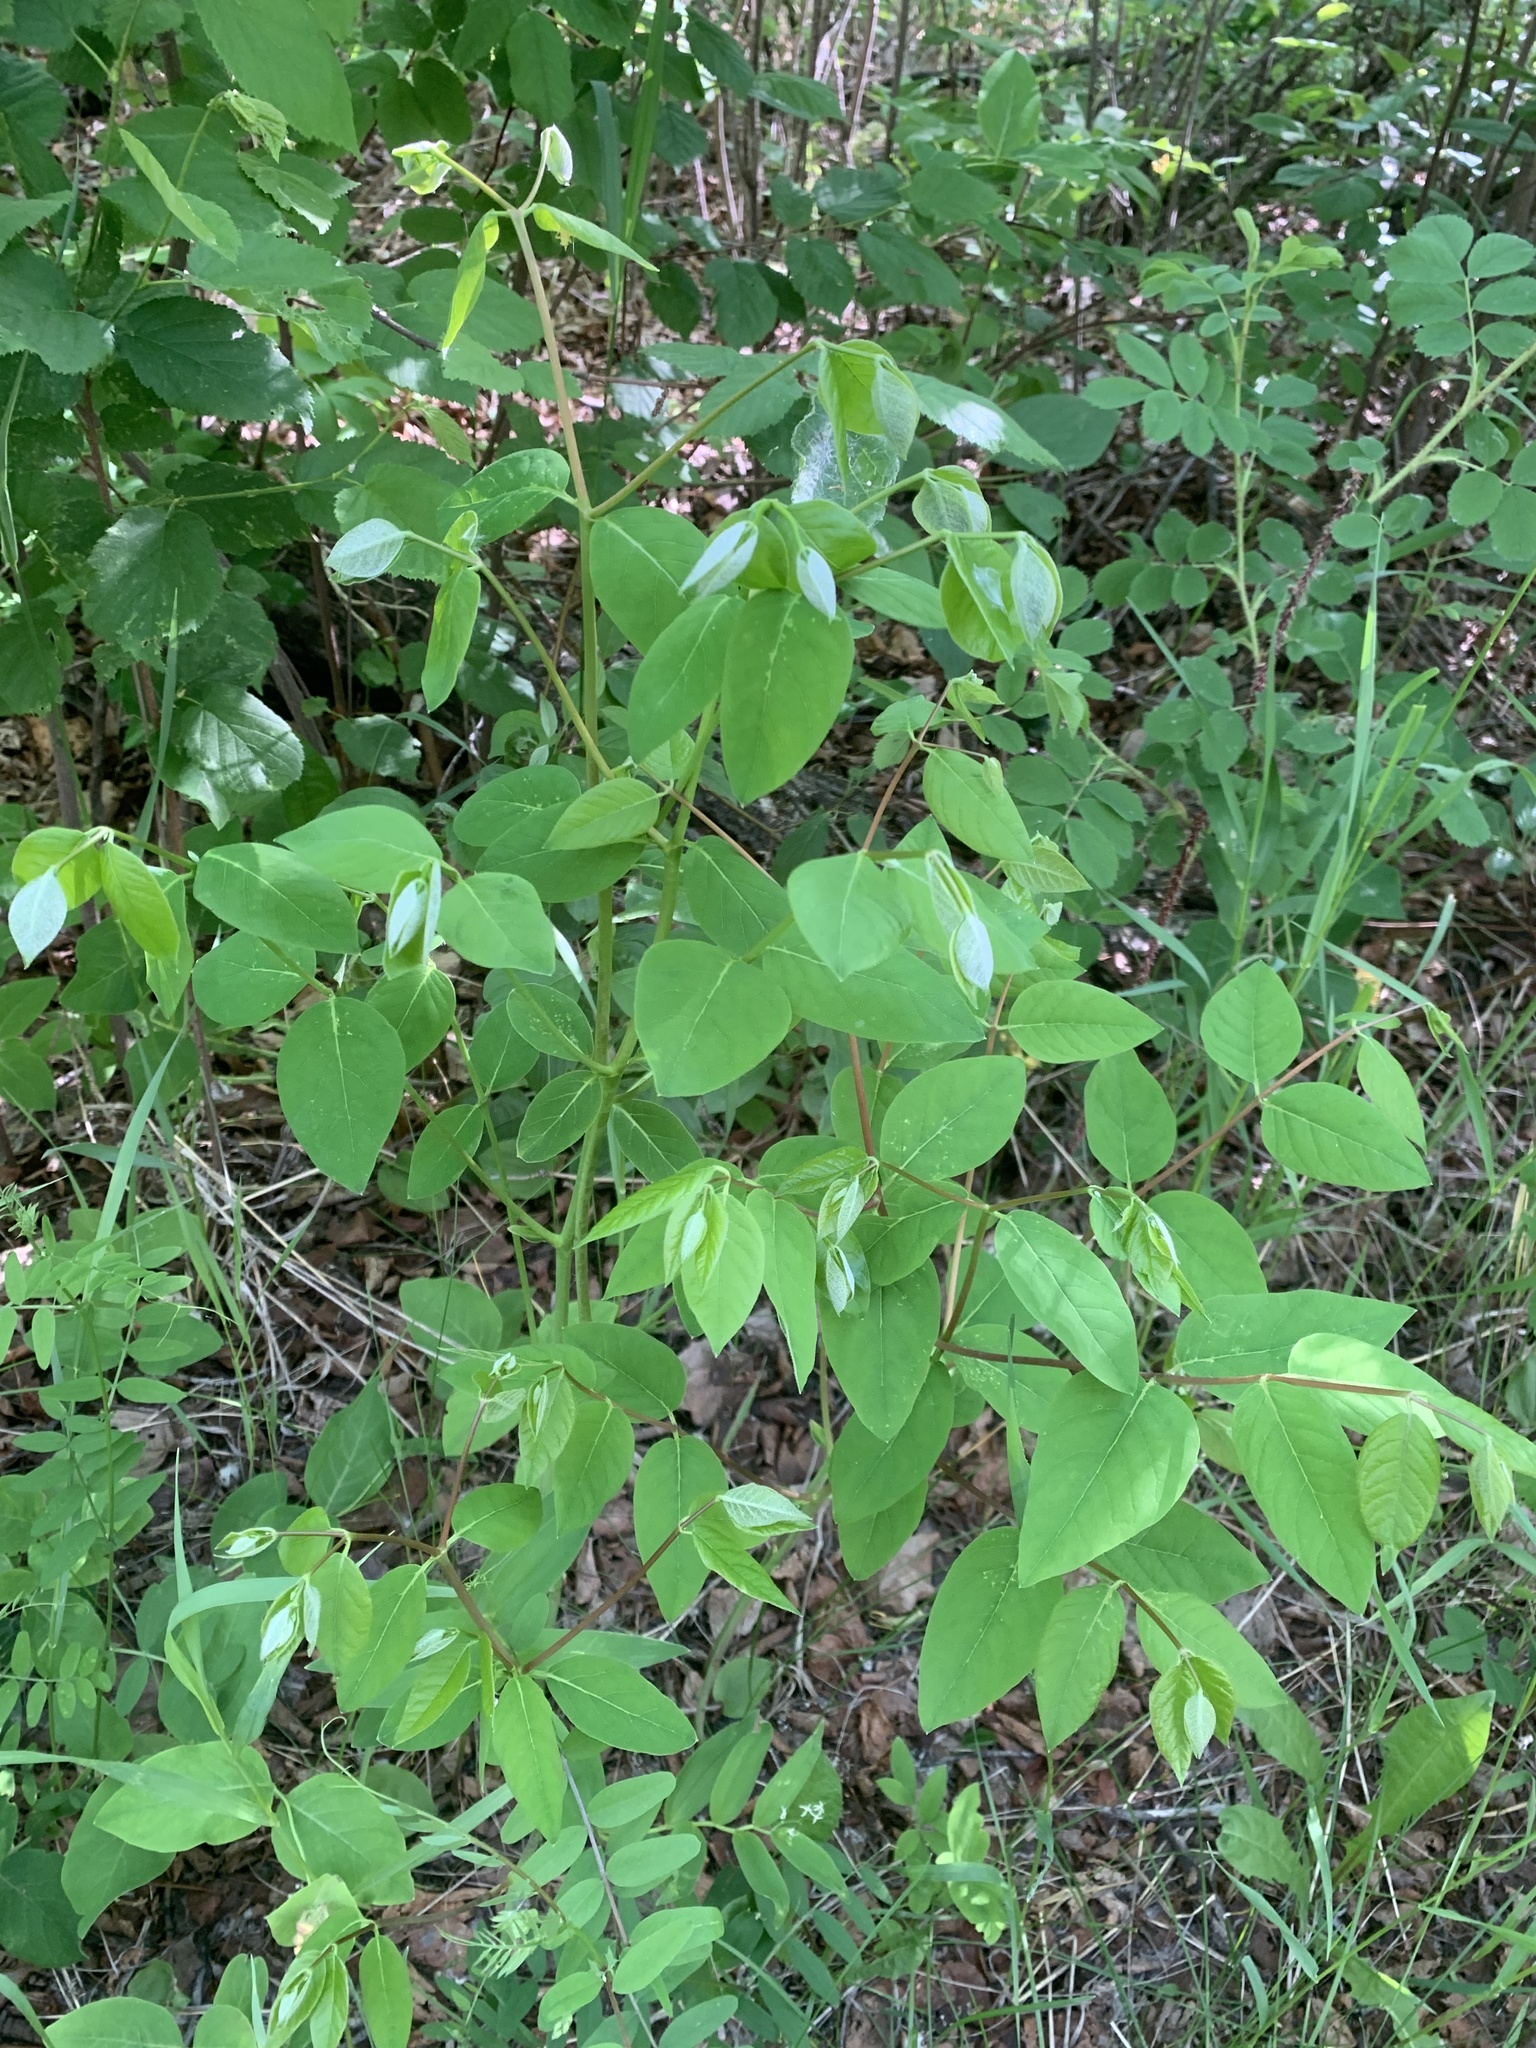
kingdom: Plantae
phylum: Tracheophyta
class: Magnoliopsida
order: Gentianales
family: Apocynaceae
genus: Apocynum
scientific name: Apocynum androsaemifolium
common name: Spreading dogbane
